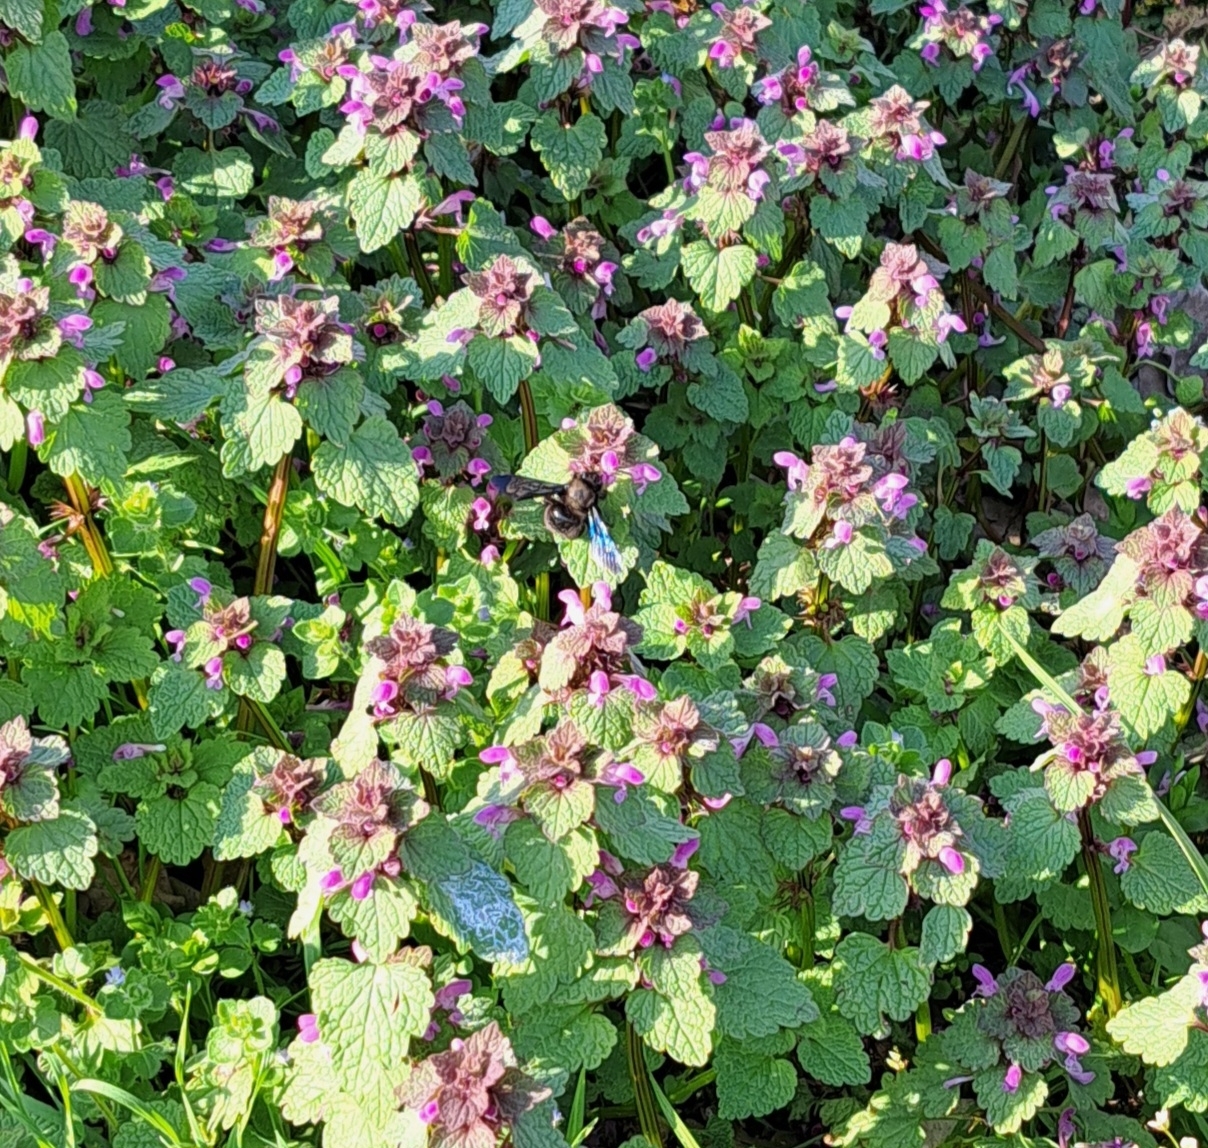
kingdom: Animalia
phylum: Arthropoda
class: Insecta
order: Hymenoptera
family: Apidae
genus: Xylocopa
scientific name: Xylocopa violacea
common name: Violet carpenter bee
